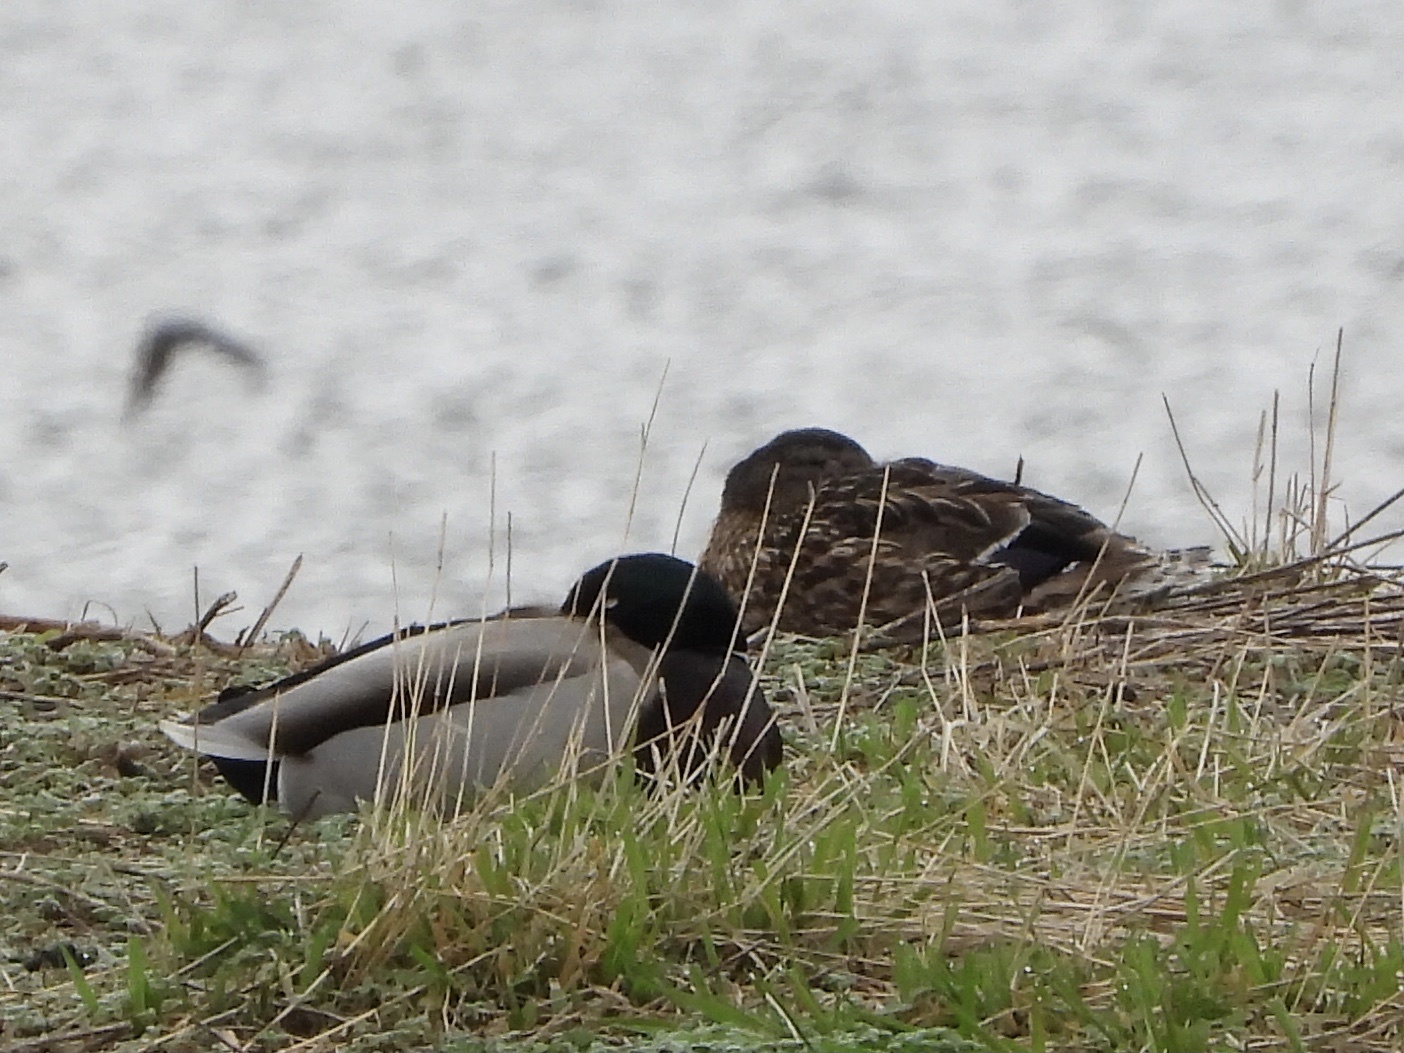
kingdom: Animalia
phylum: Chordata
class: Aves
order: Anseriformes
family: Anatidae
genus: Anas
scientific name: Anas platyrhynchos
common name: Mallard
